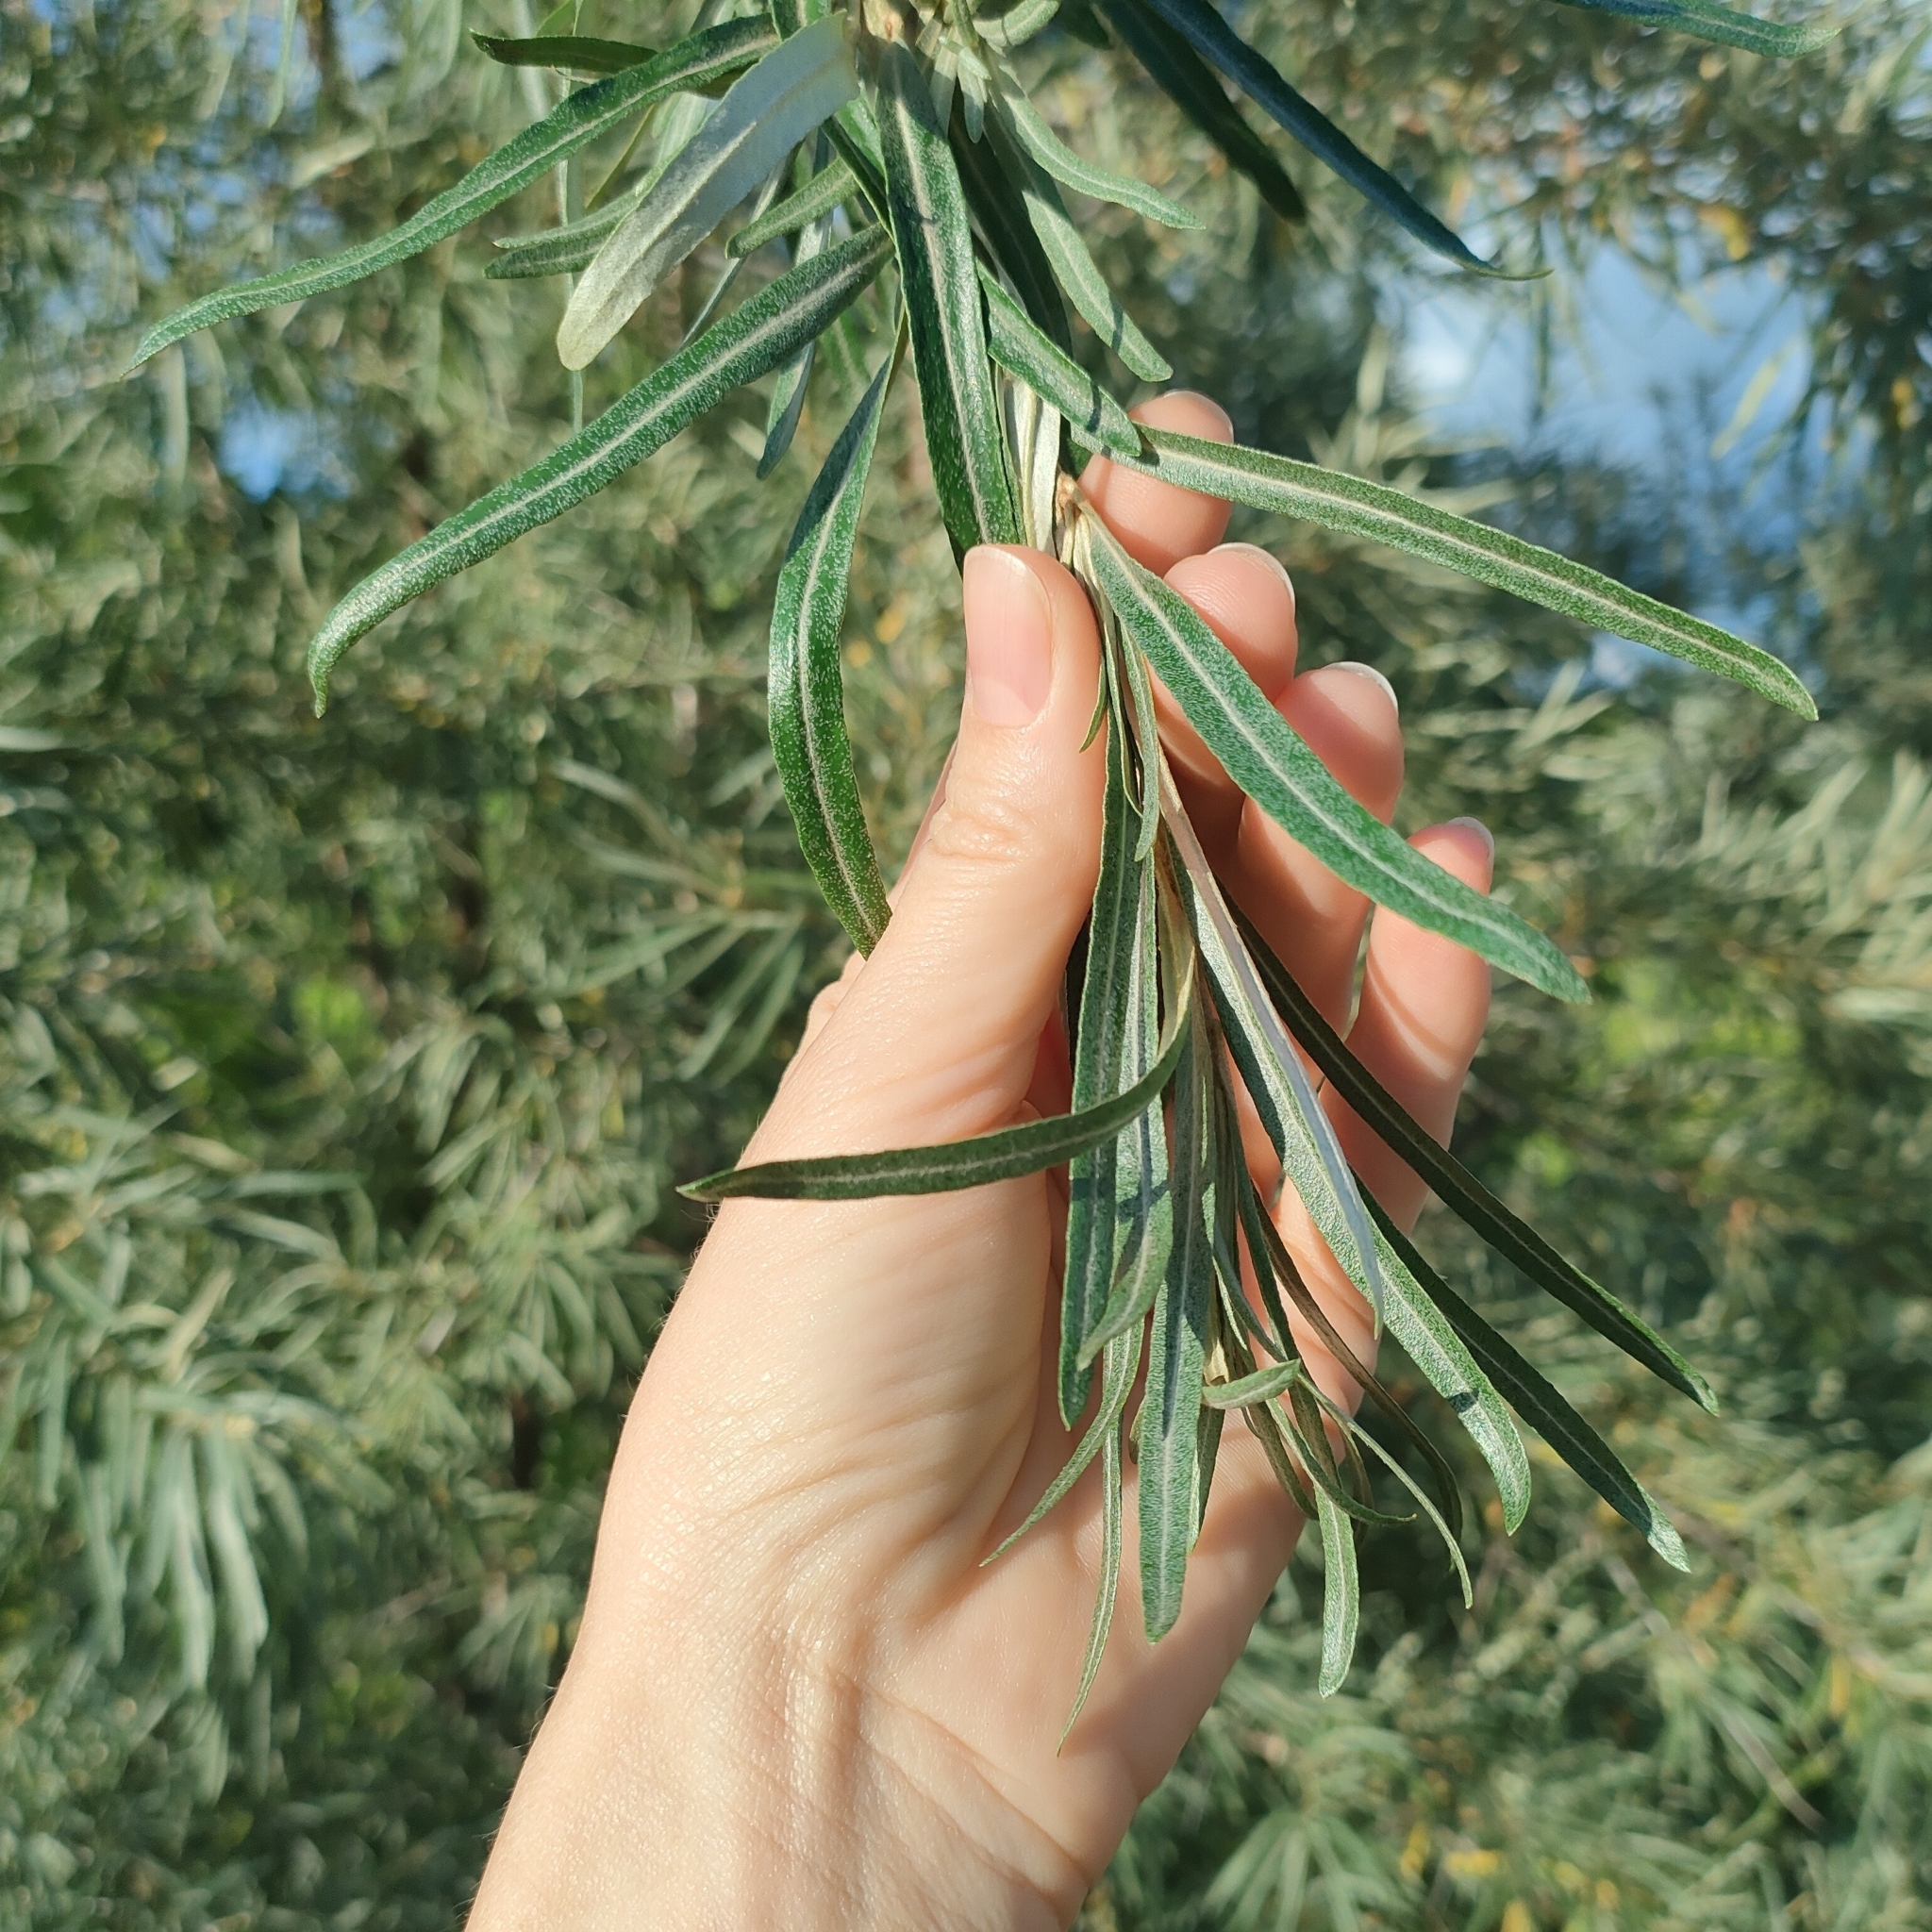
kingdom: Plantae
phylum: Tracheophyta
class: Magnoliopsida
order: Rosales
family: Elaeagnaceae
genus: Hippophae
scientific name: Hippophae rhamnoides
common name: Sea-buckthorn
